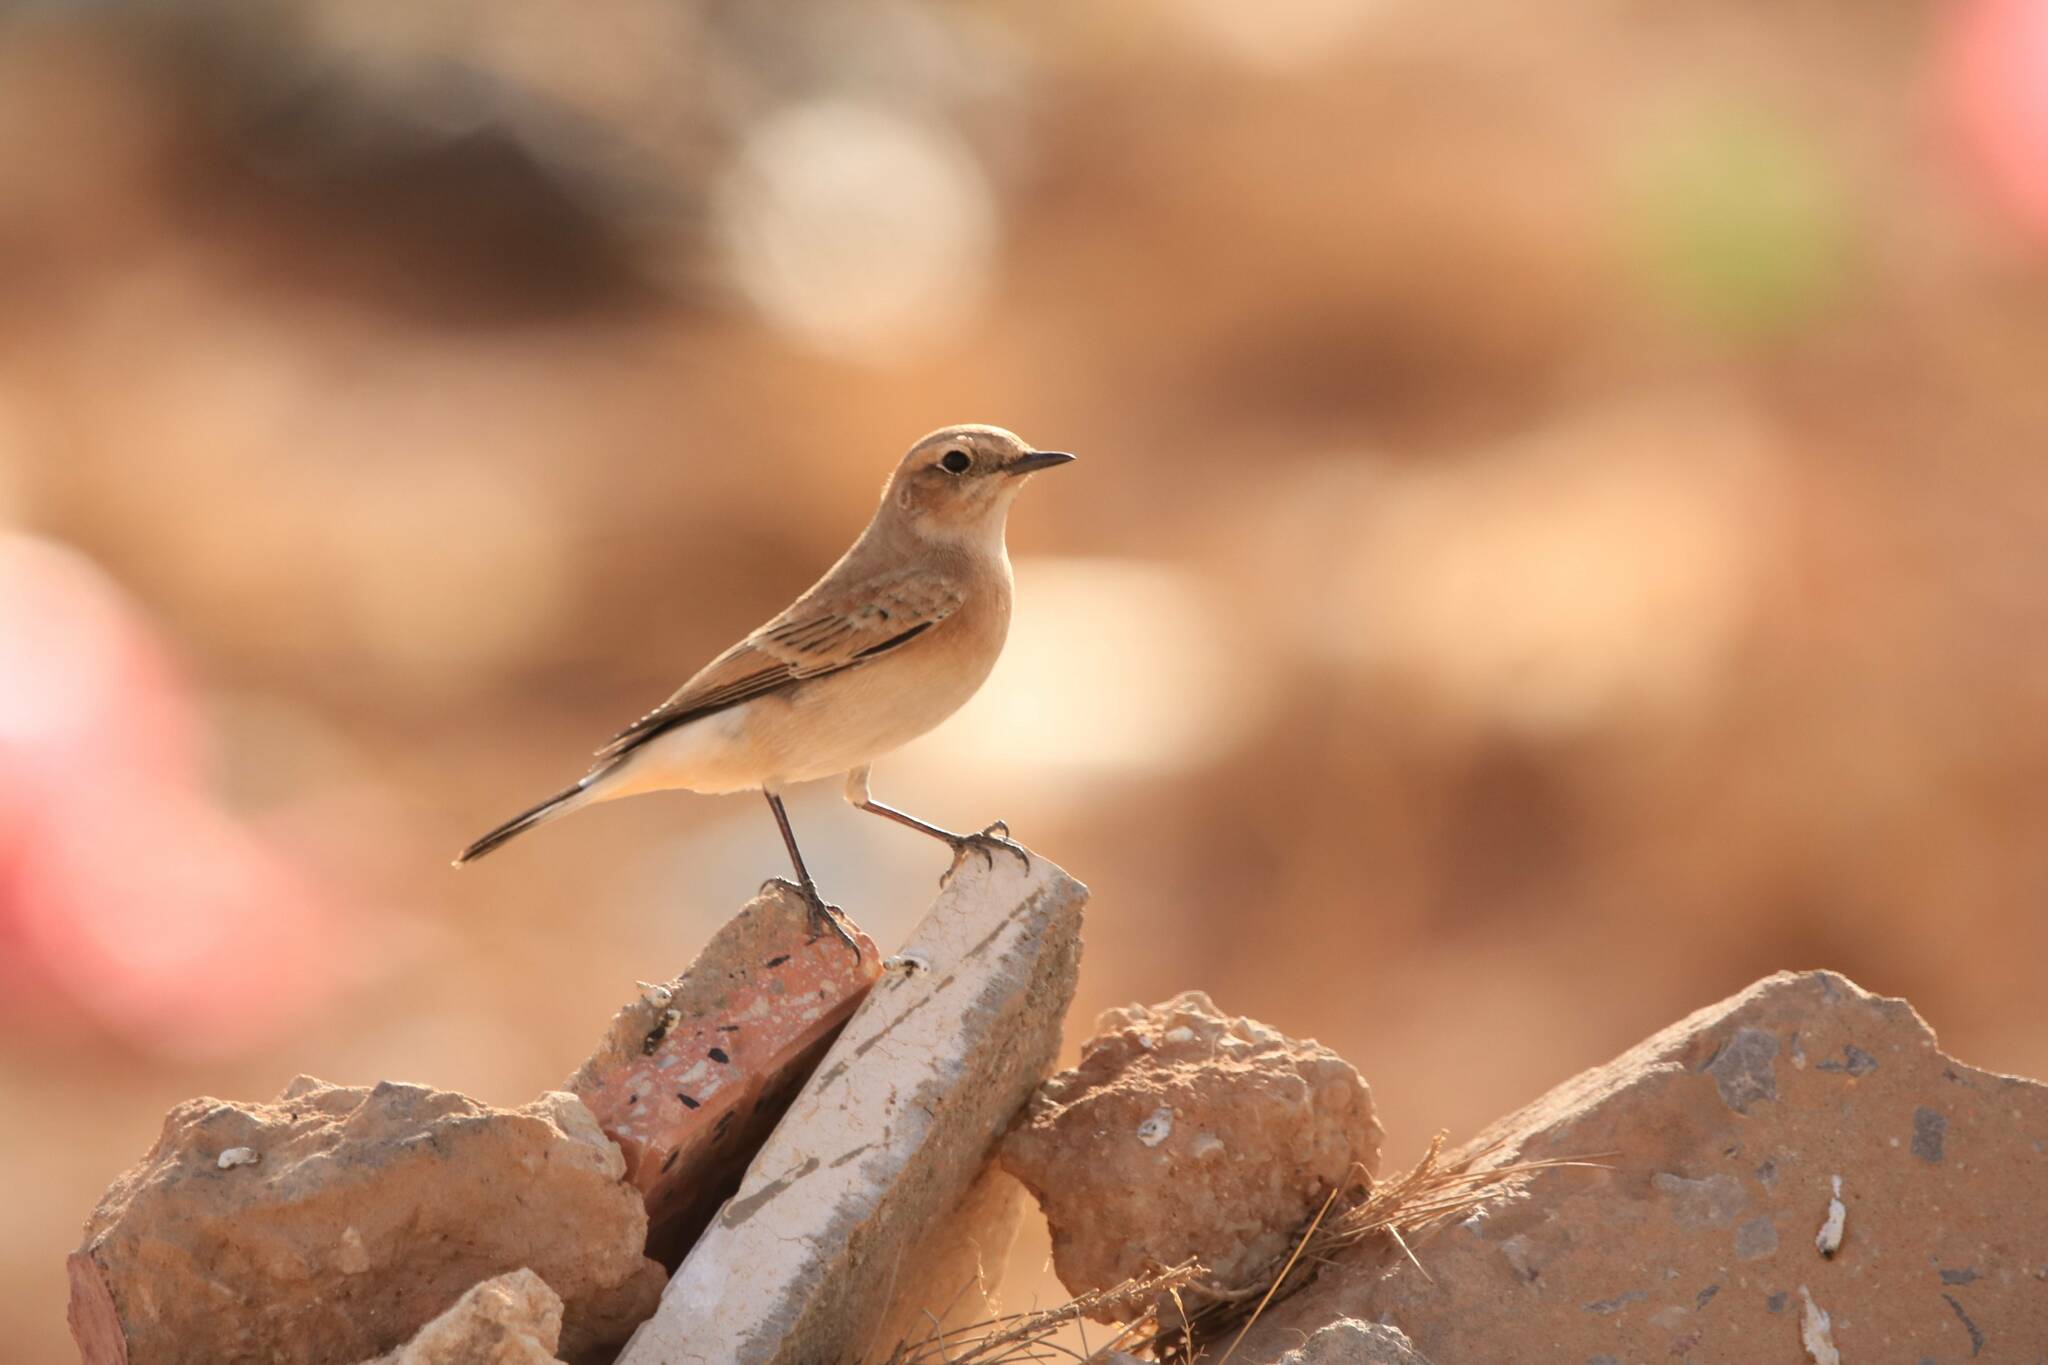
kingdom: Animalia
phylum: Chordata
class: Aves
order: Passeriformes
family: Muscicapidae
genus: Oenanthe
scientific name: Oenanthe hispanica
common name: Black-eared wheatear
